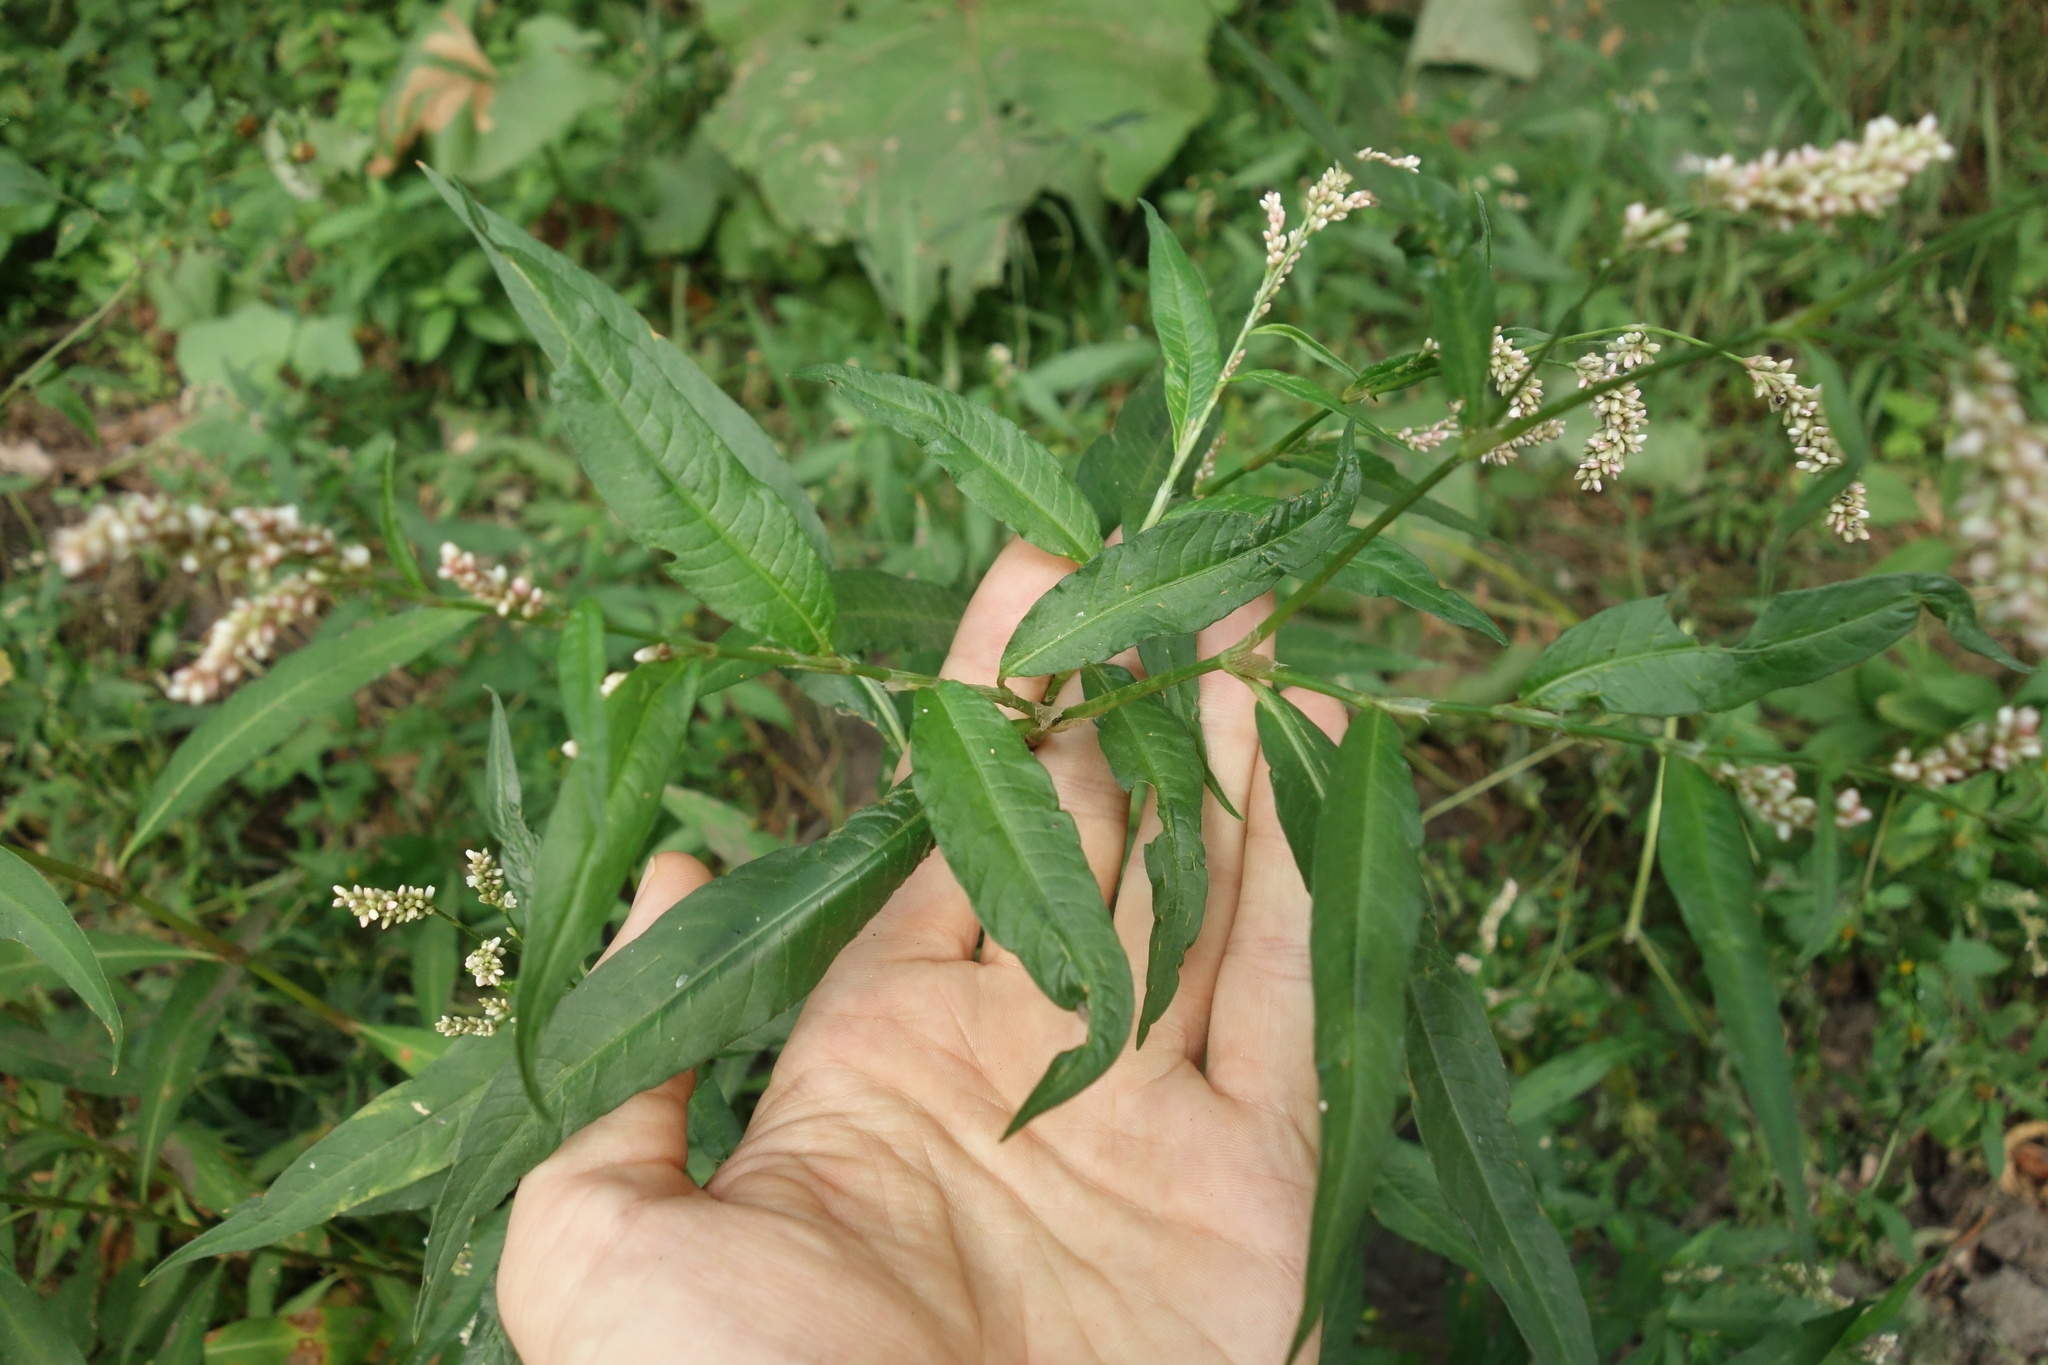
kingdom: Plantae
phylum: Tracheophyta
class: Magnoliopsida
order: Caryophyllales
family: Polygonaceae
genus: Persicaria
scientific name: Persicaria lapathifolia
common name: Curlytop knotweed
